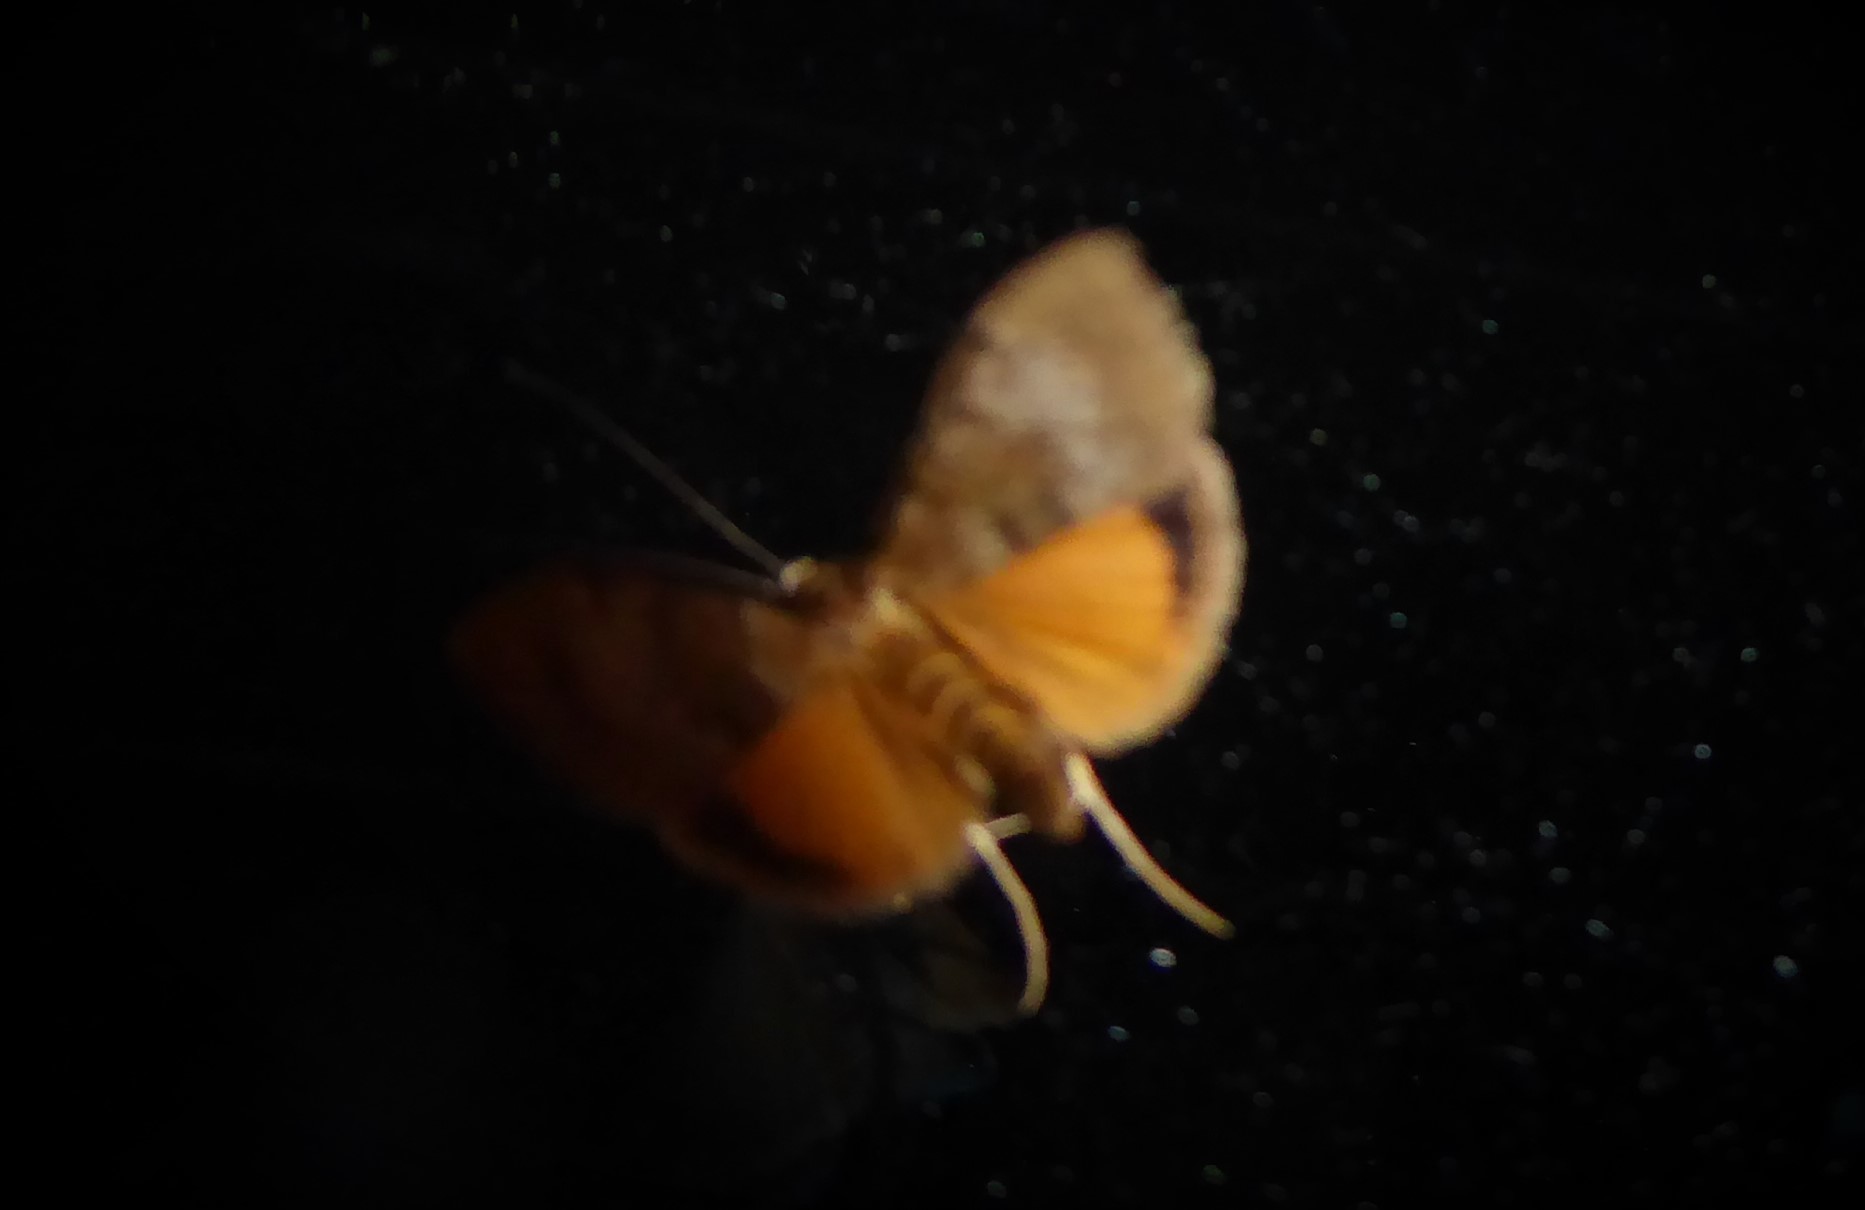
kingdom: Animalia
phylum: Arthropoda
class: Insecta
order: Lepidoptera
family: Crambidae
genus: Uresiphita
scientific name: Uresiphita
